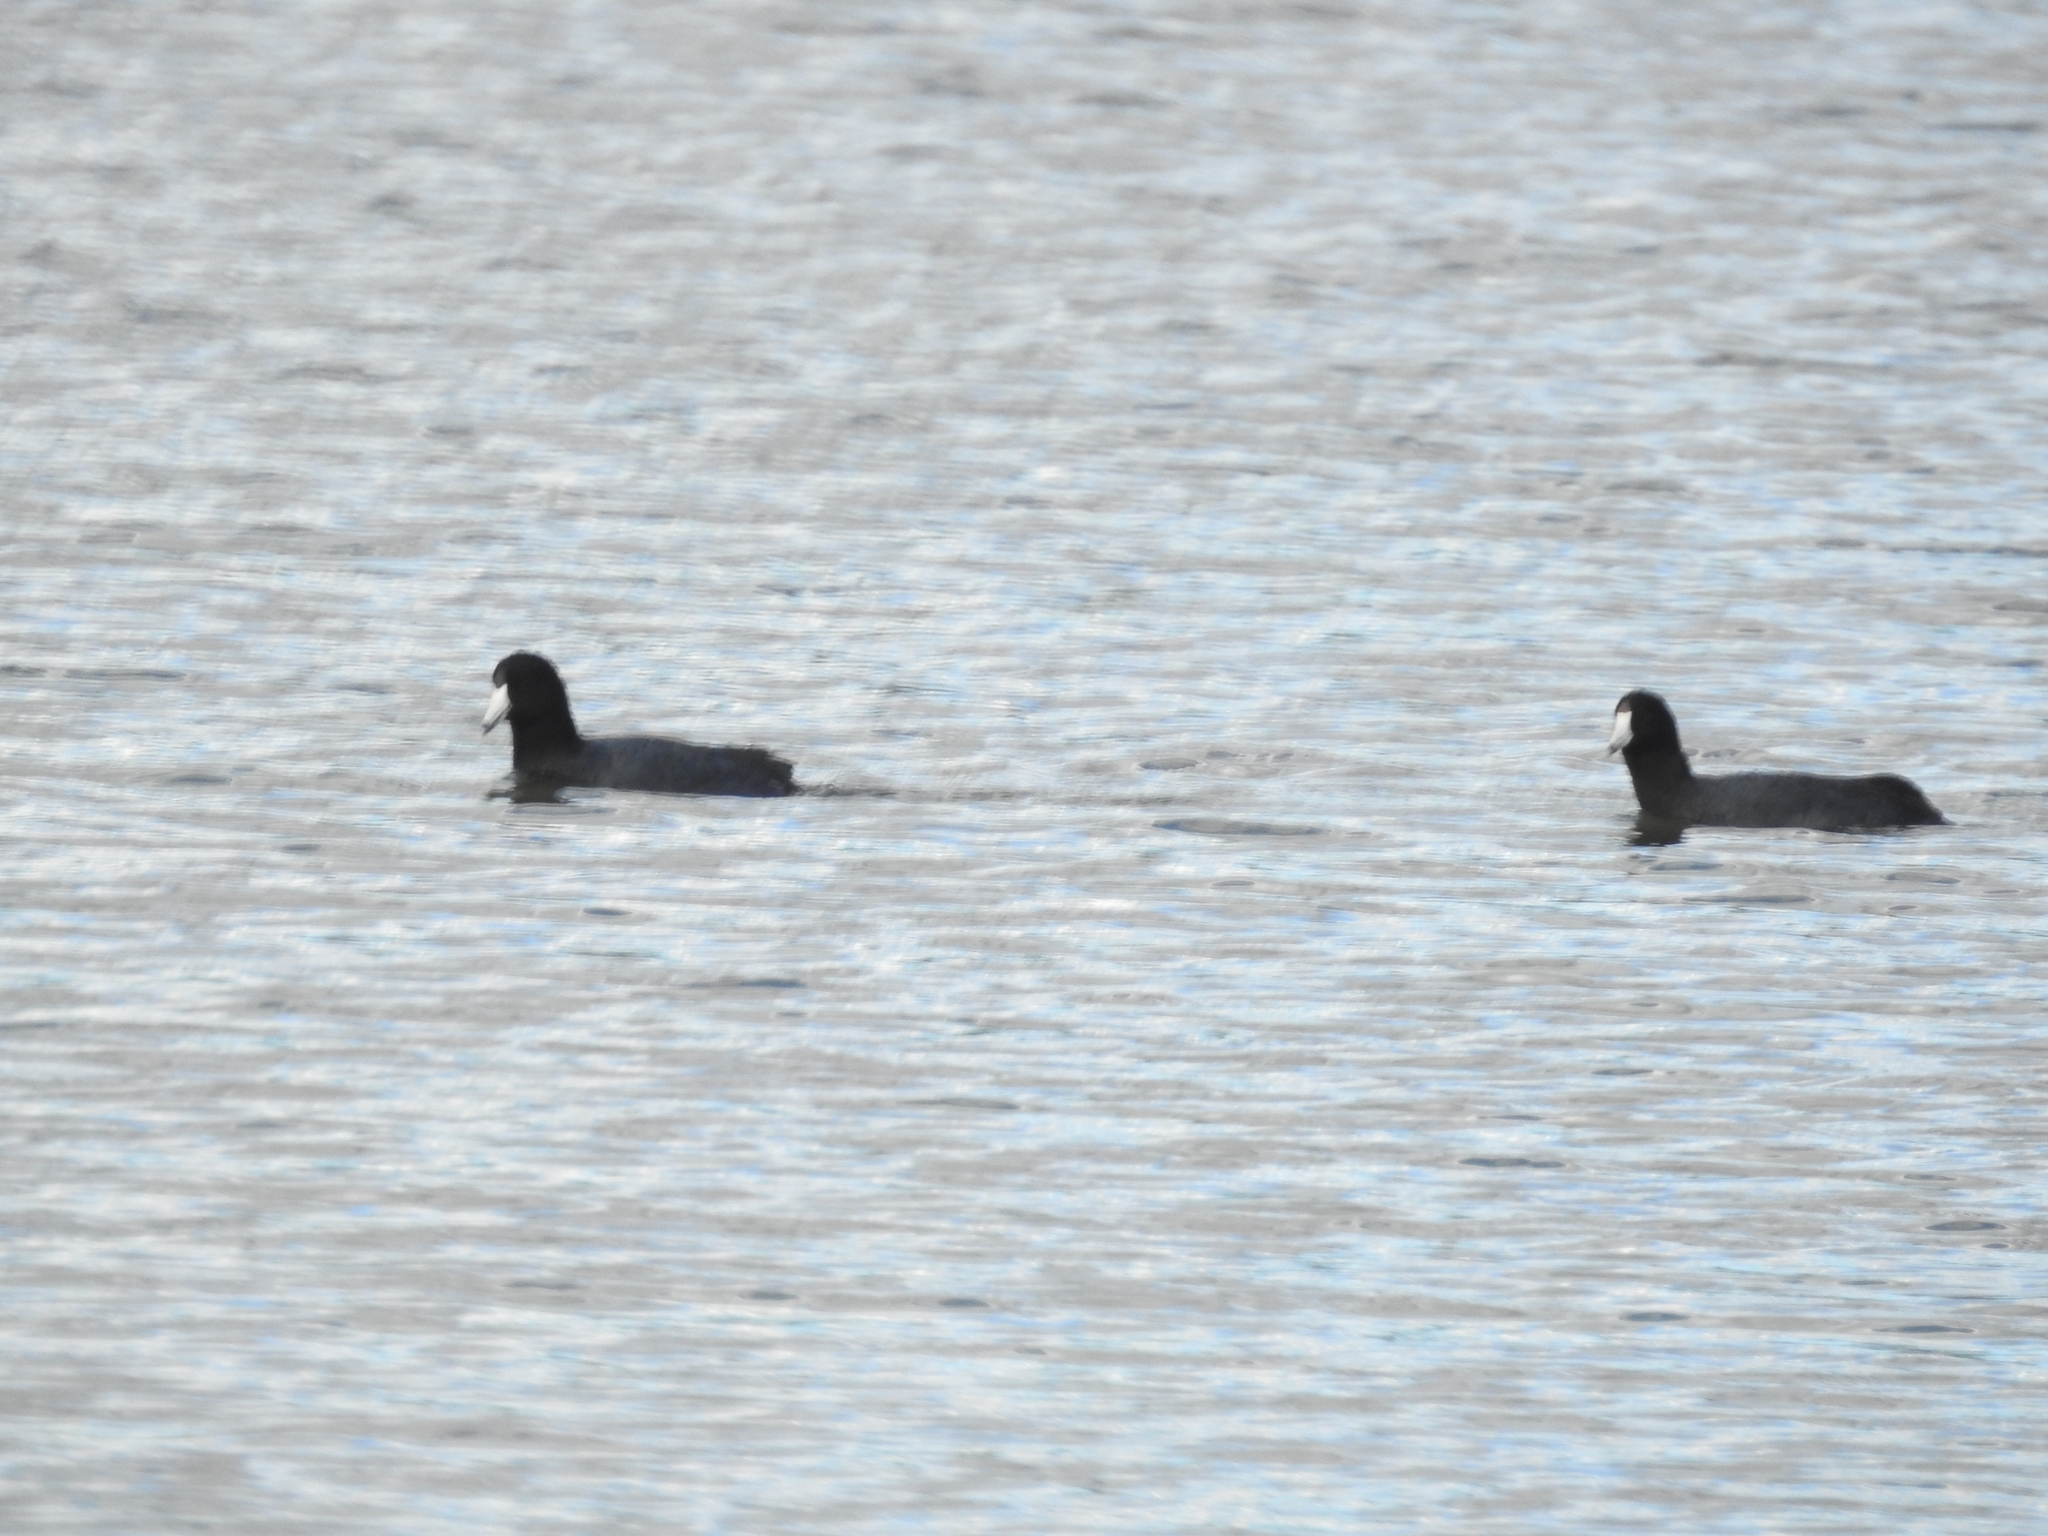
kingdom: Animalia
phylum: Chordata
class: Aves
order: Gruiformes
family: Rallidae
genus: Fulica
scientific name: Fulica americana
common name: American coot
